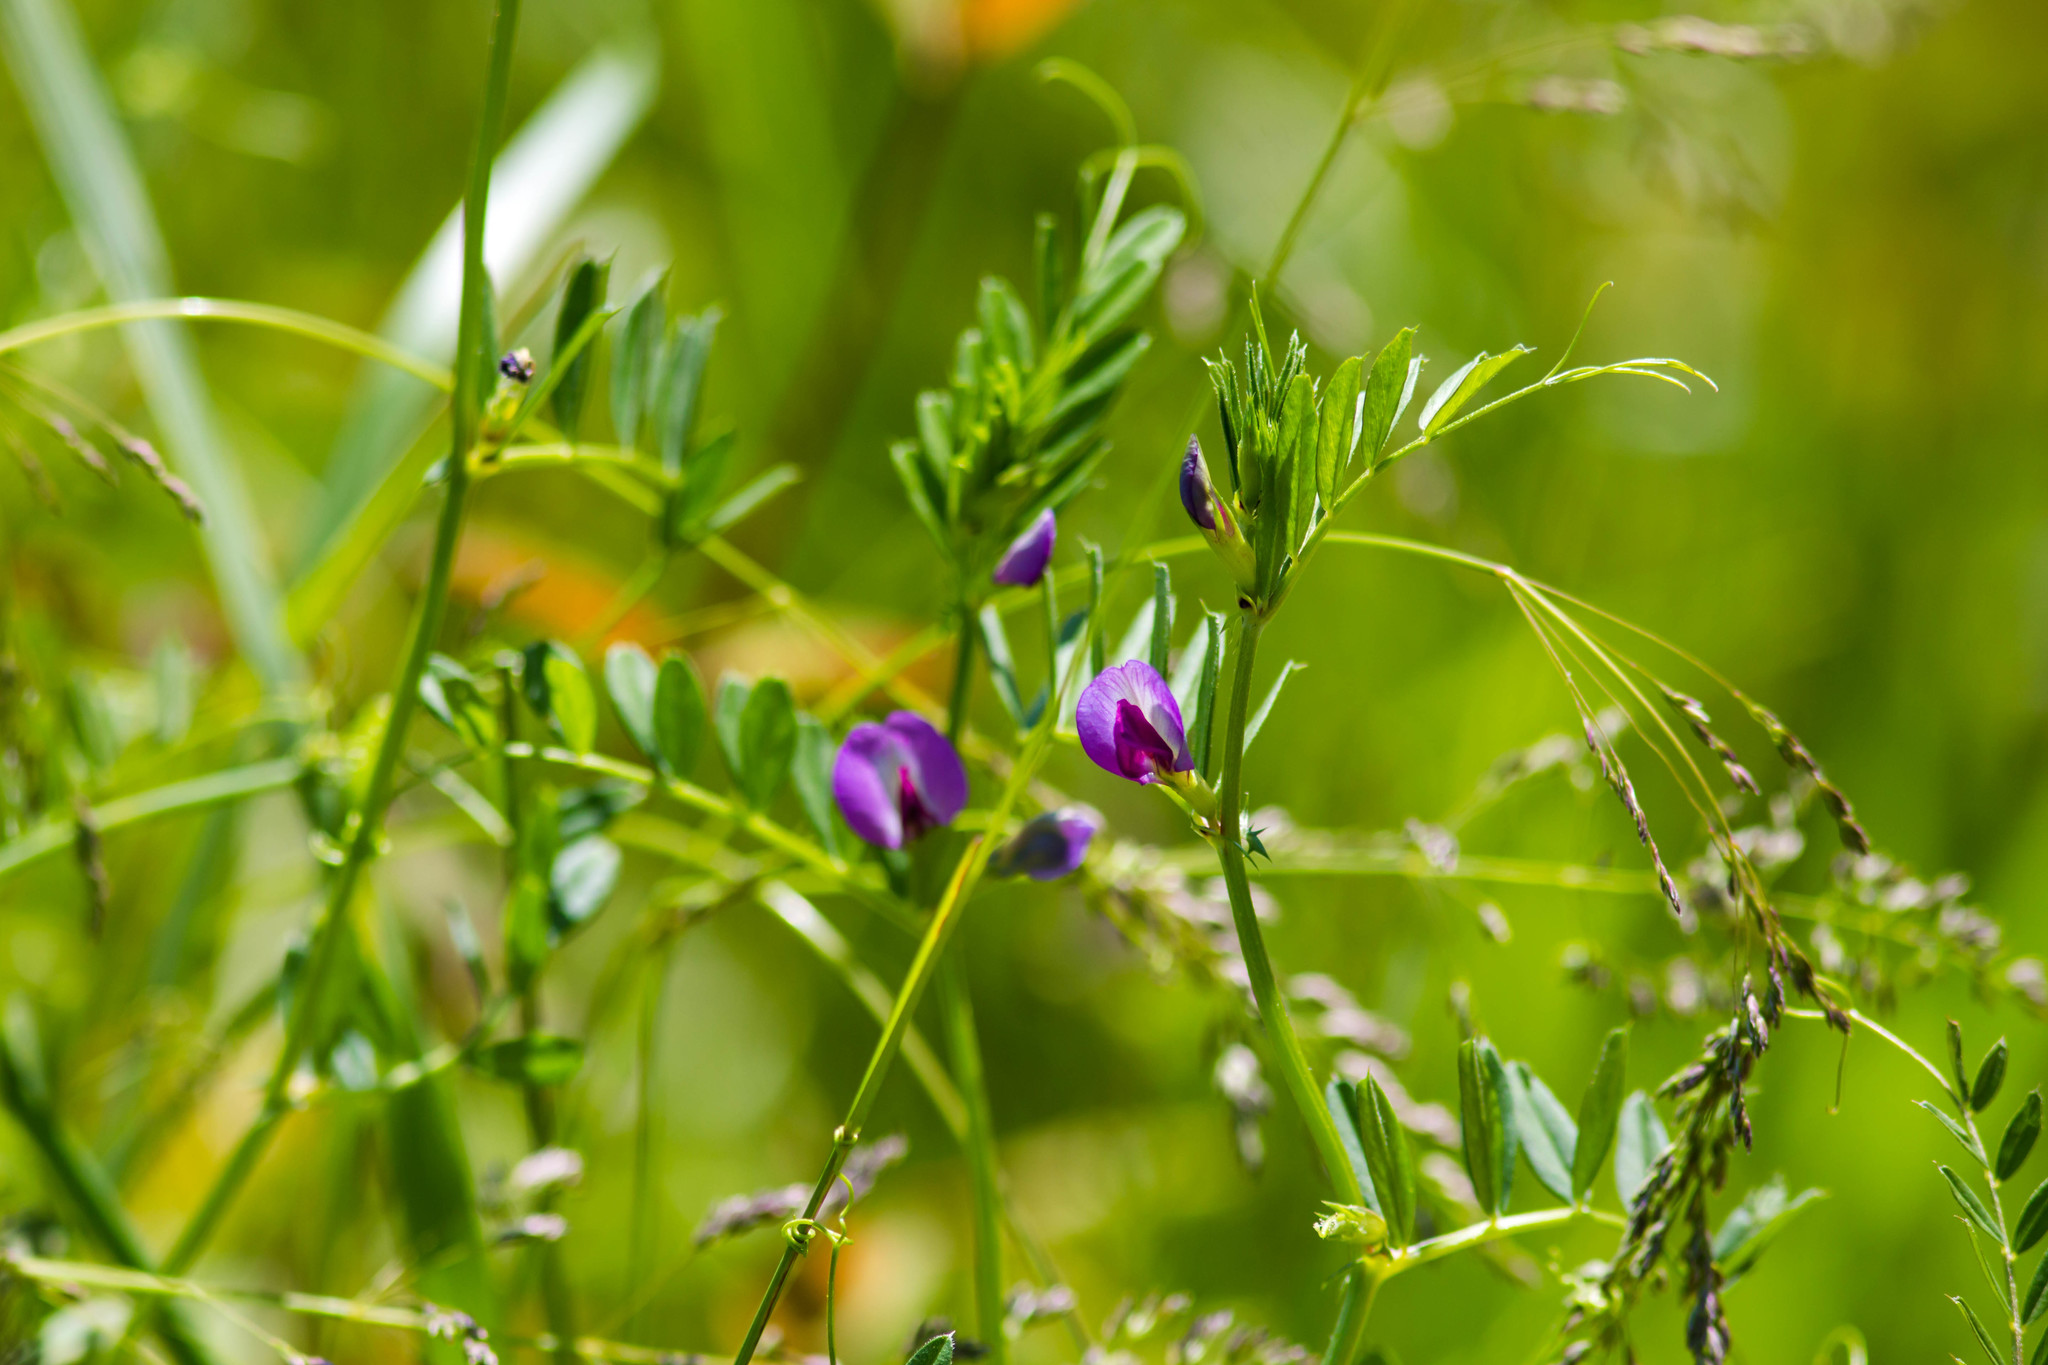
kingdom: Plantae
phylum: Tracheophyta
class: Magnoliopsida
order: Fabales
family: Fabaceae
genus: Vicia
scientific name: Vicia sativa
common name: Garden vetch
